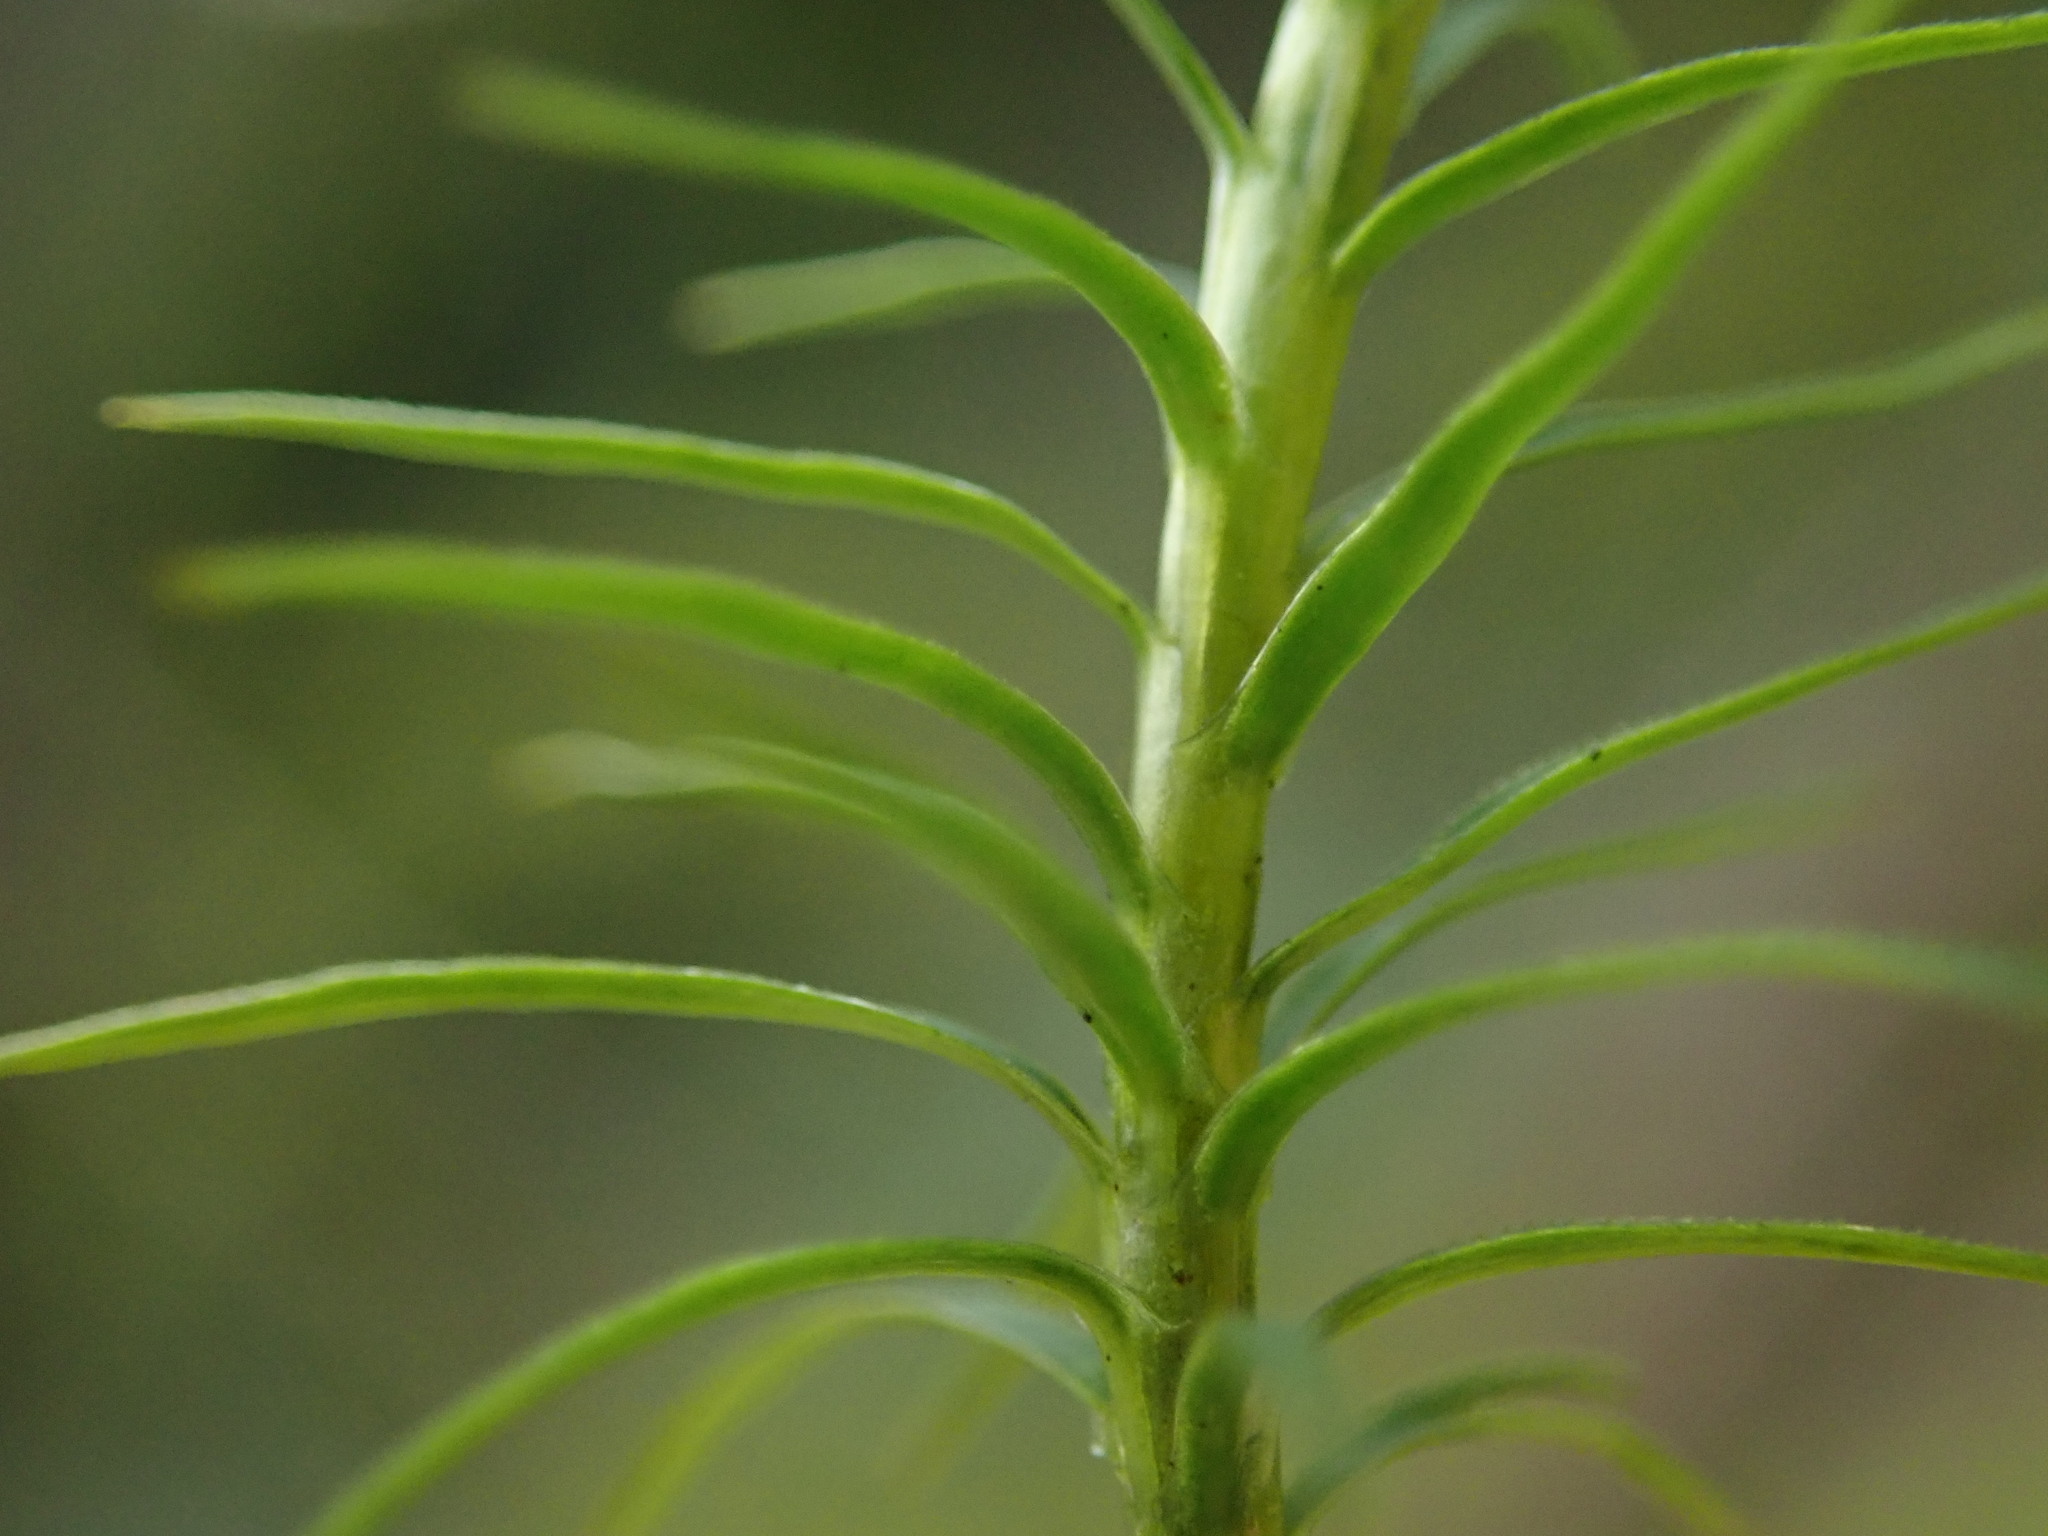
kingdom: Plantae
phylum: Bryophyta
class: Polytrichopsida
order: Polytrichales
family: Polytrichaceae
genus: Polytrichastrum
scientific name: Polytrichastrum alpinum
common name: Alpine haircap
